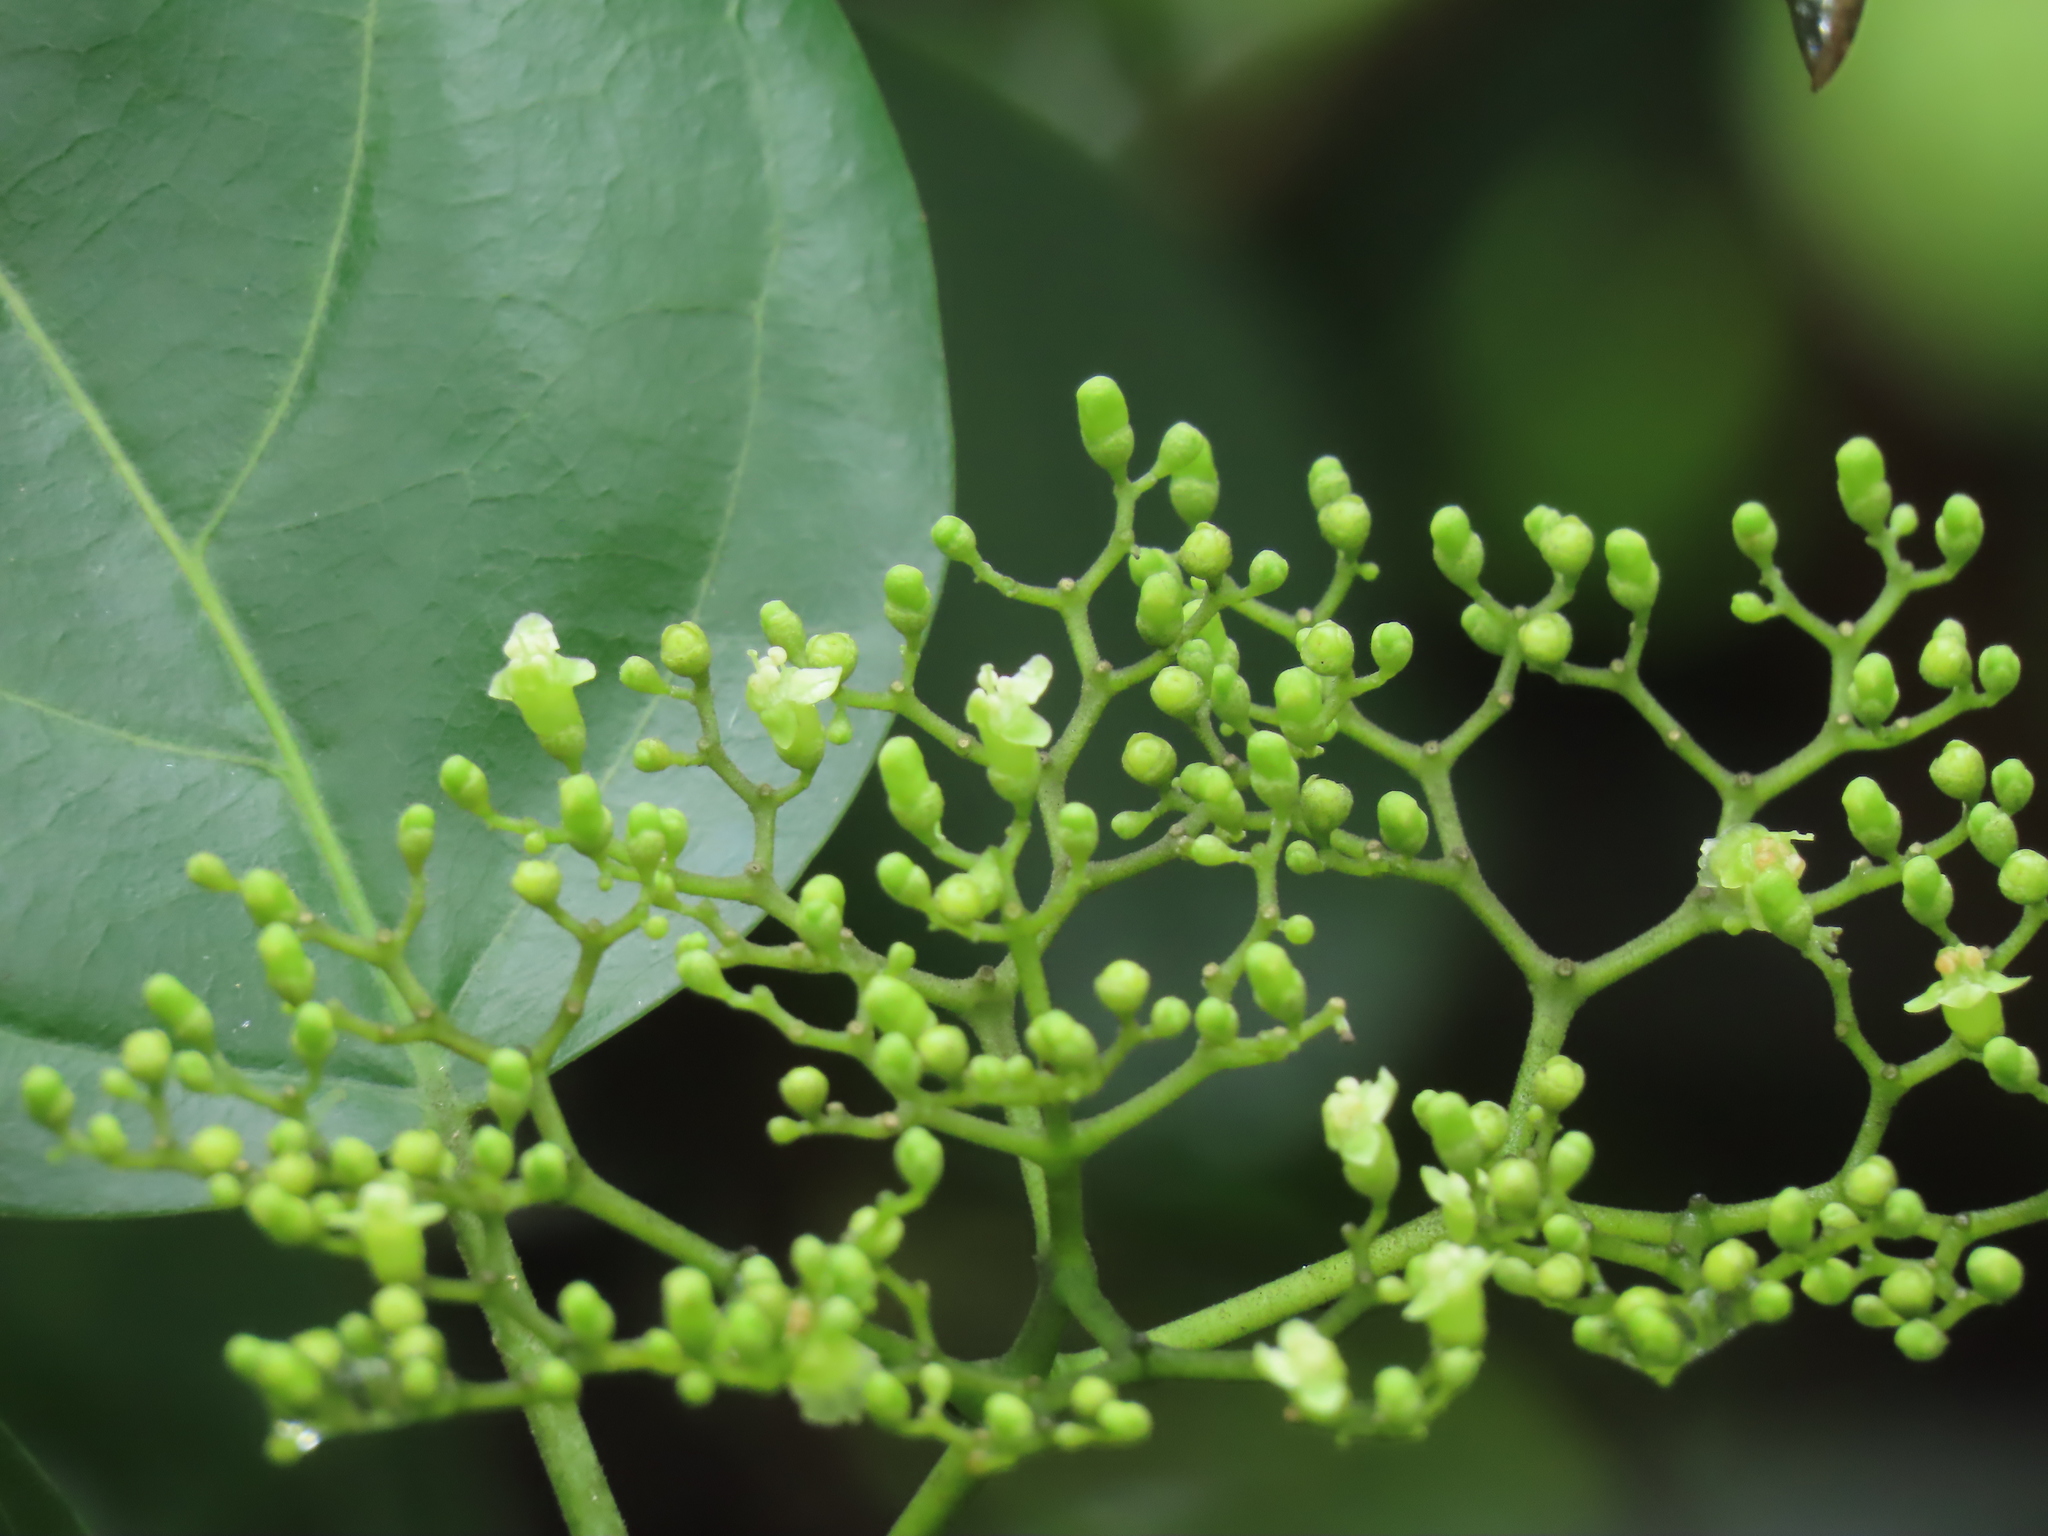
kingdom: Plantae
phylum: Tracheophyta
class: Magnoliopsida
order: Lamiales
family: Lamiaceae
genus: Premna
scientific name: Premna serratifolia
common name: Bastard guelder
